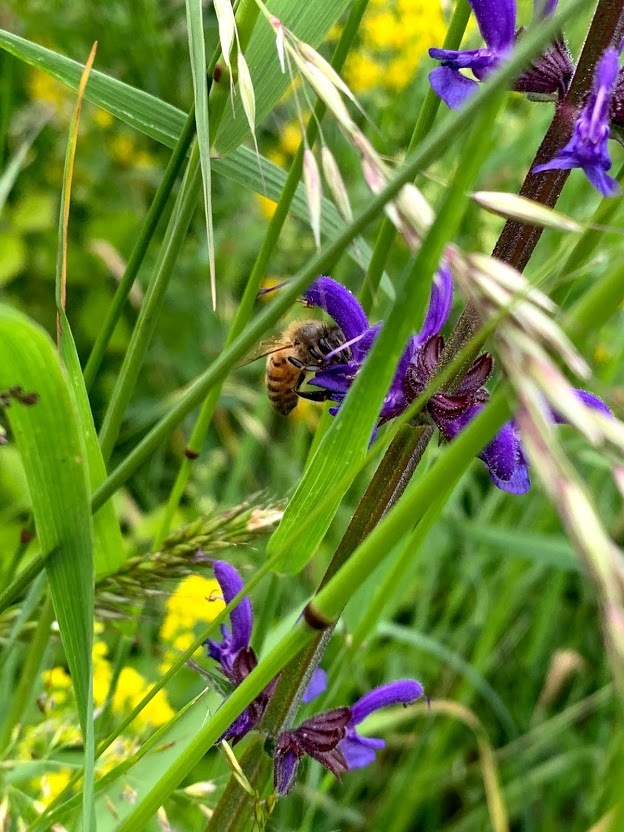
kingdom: Animalia
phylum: Arthropoda
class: Insecta
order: Hymenoptera
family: Apidae
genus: Apis
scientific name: Apis mellifera
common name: Honey bee
